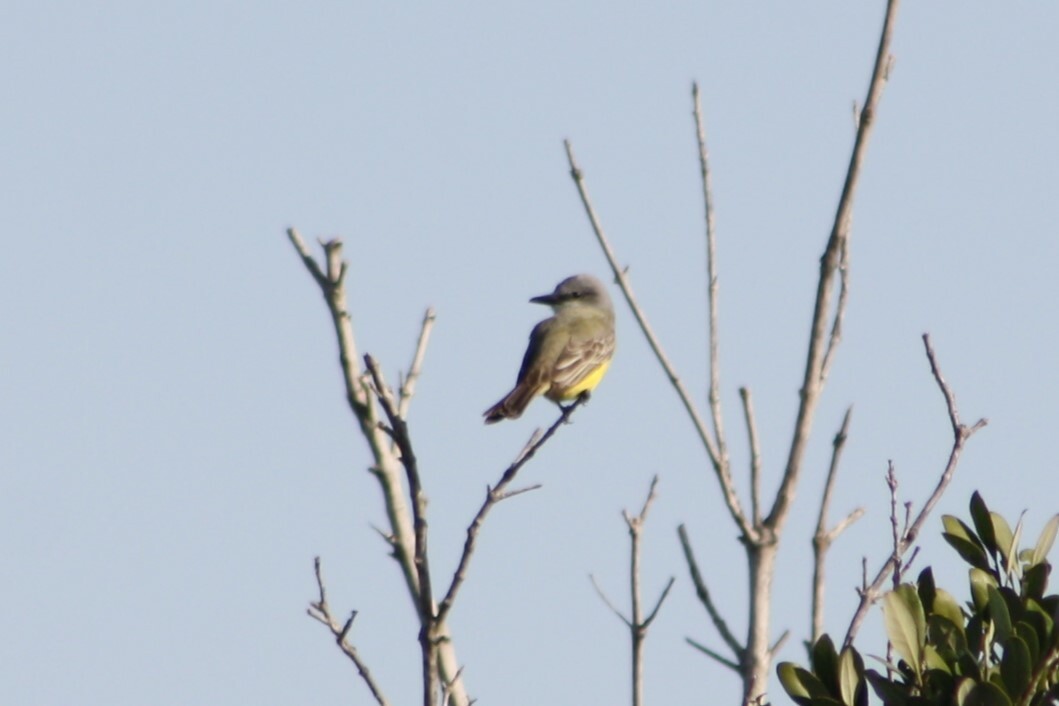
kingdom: Animalia
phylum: Chordata
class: Aves
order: Passeriformes
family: Tyrannidae
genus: Tyrannus
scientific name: Tyrannus melancholicus
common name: Tropical kingbird
